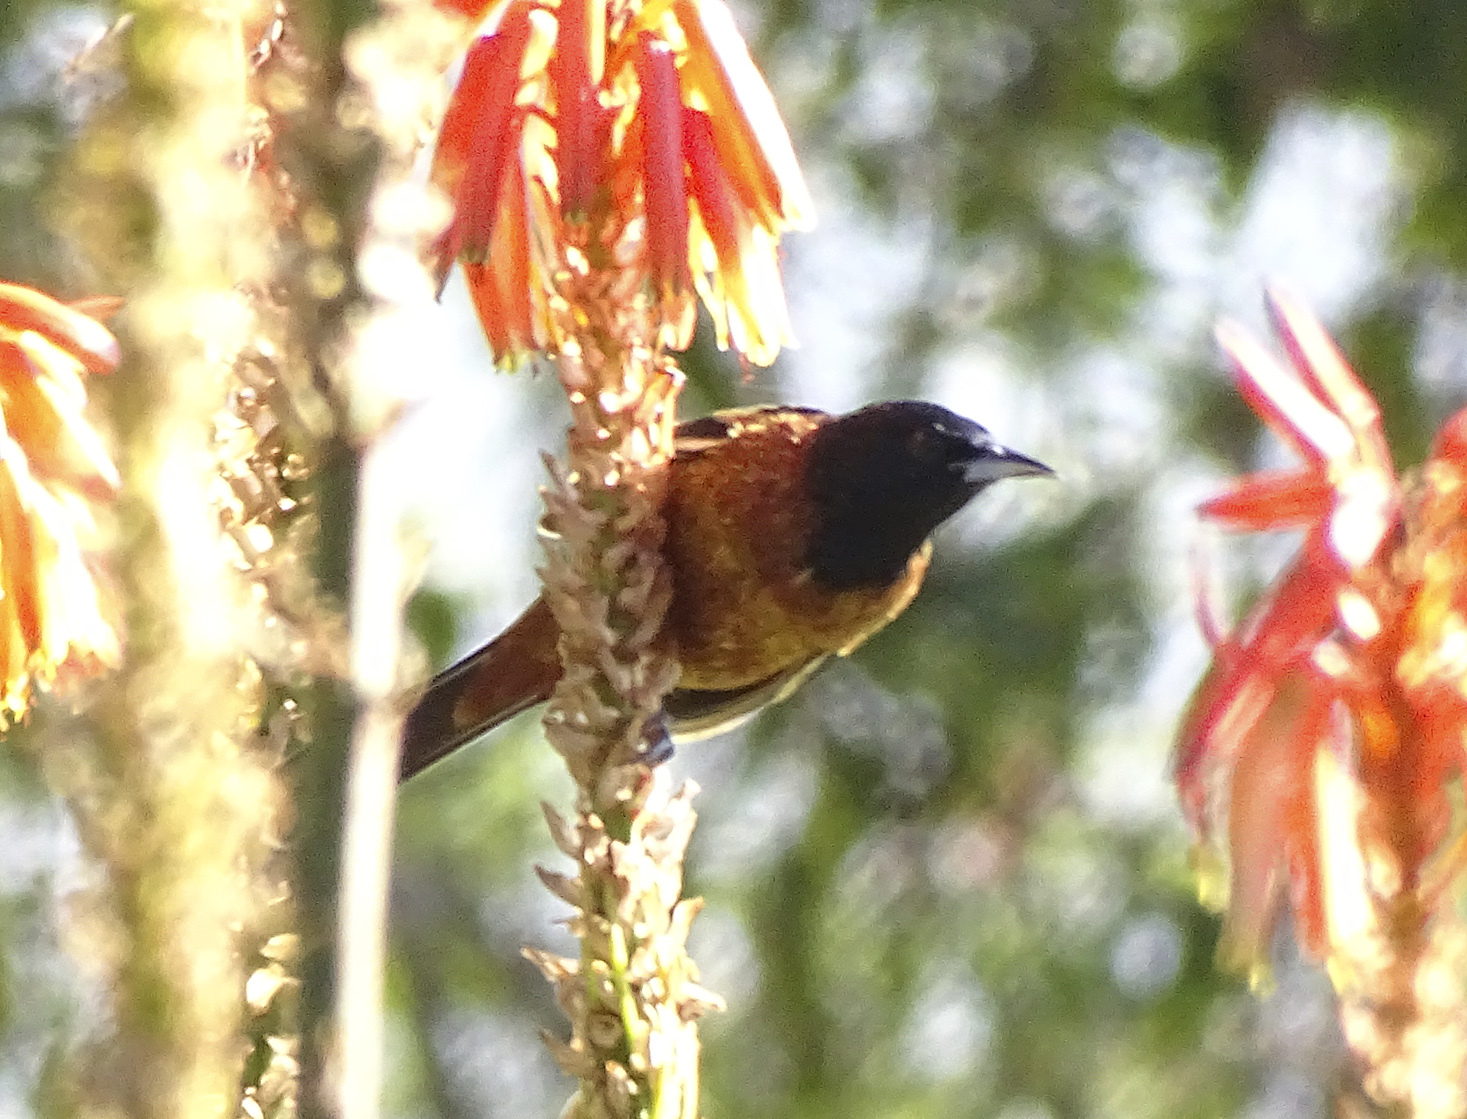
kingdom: Animalia
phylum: Chordata
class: Aves
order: Passeriformes
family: Icteridae
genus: Icterus
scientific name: Icterus spurius
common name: Orchard oriole
